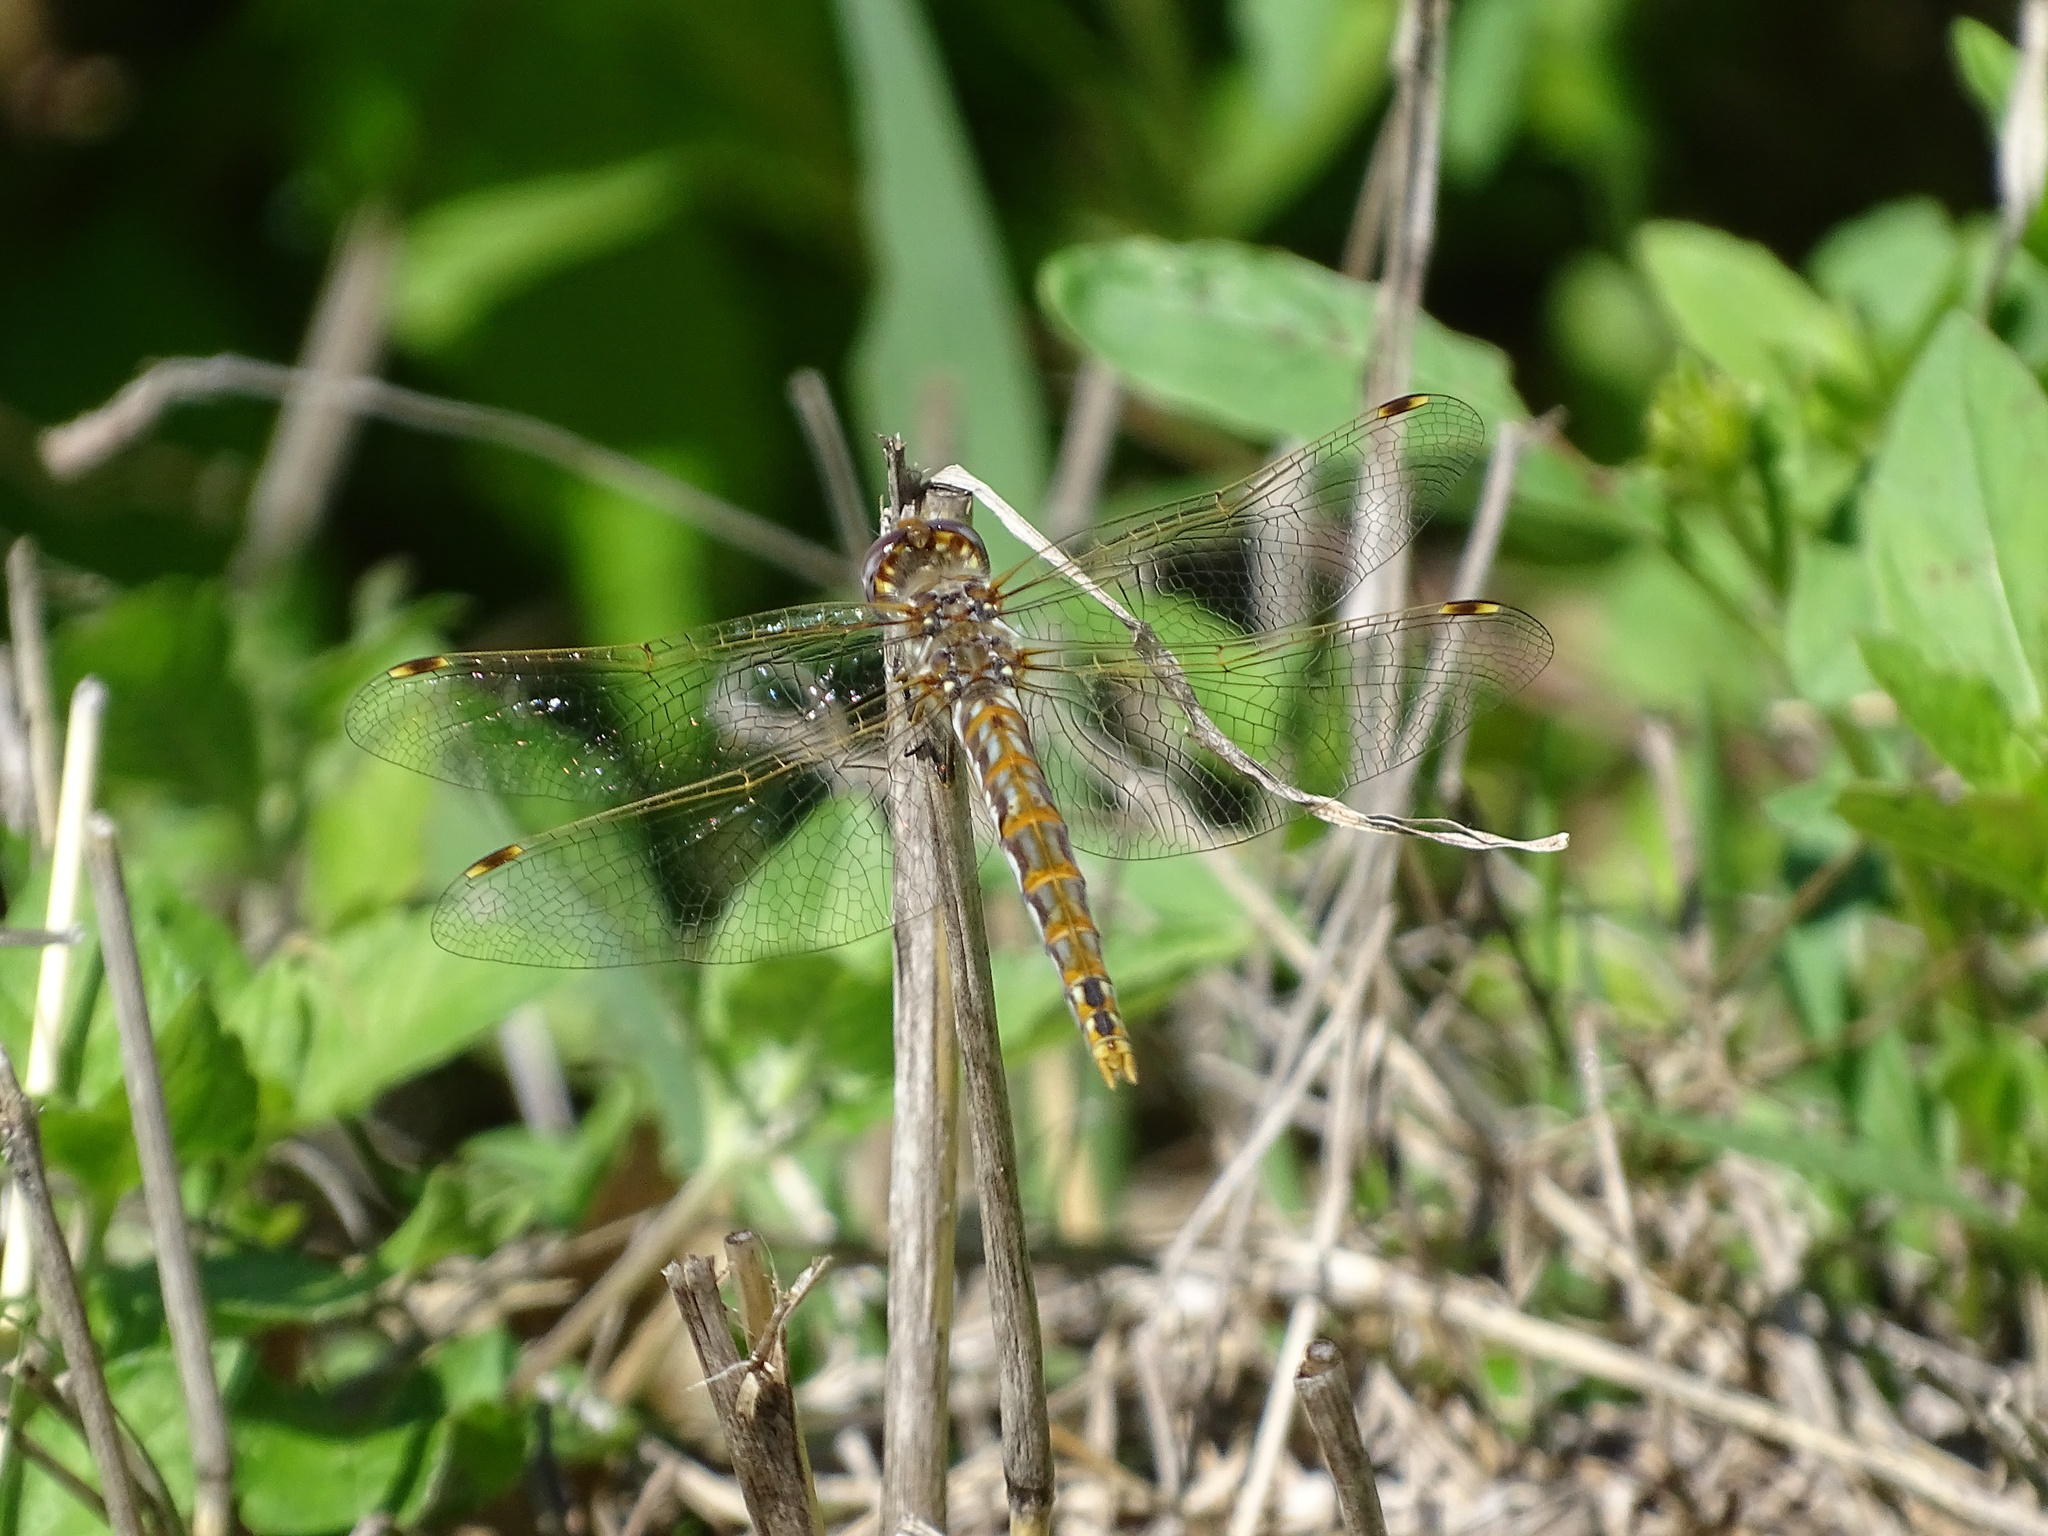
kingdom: Animalia
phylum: Arthropoda
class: Insecta
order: Odonata
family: Libellulidae
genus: Sympetrum
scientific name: Sympetrum corruptum
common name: Variegated meadowhawk
